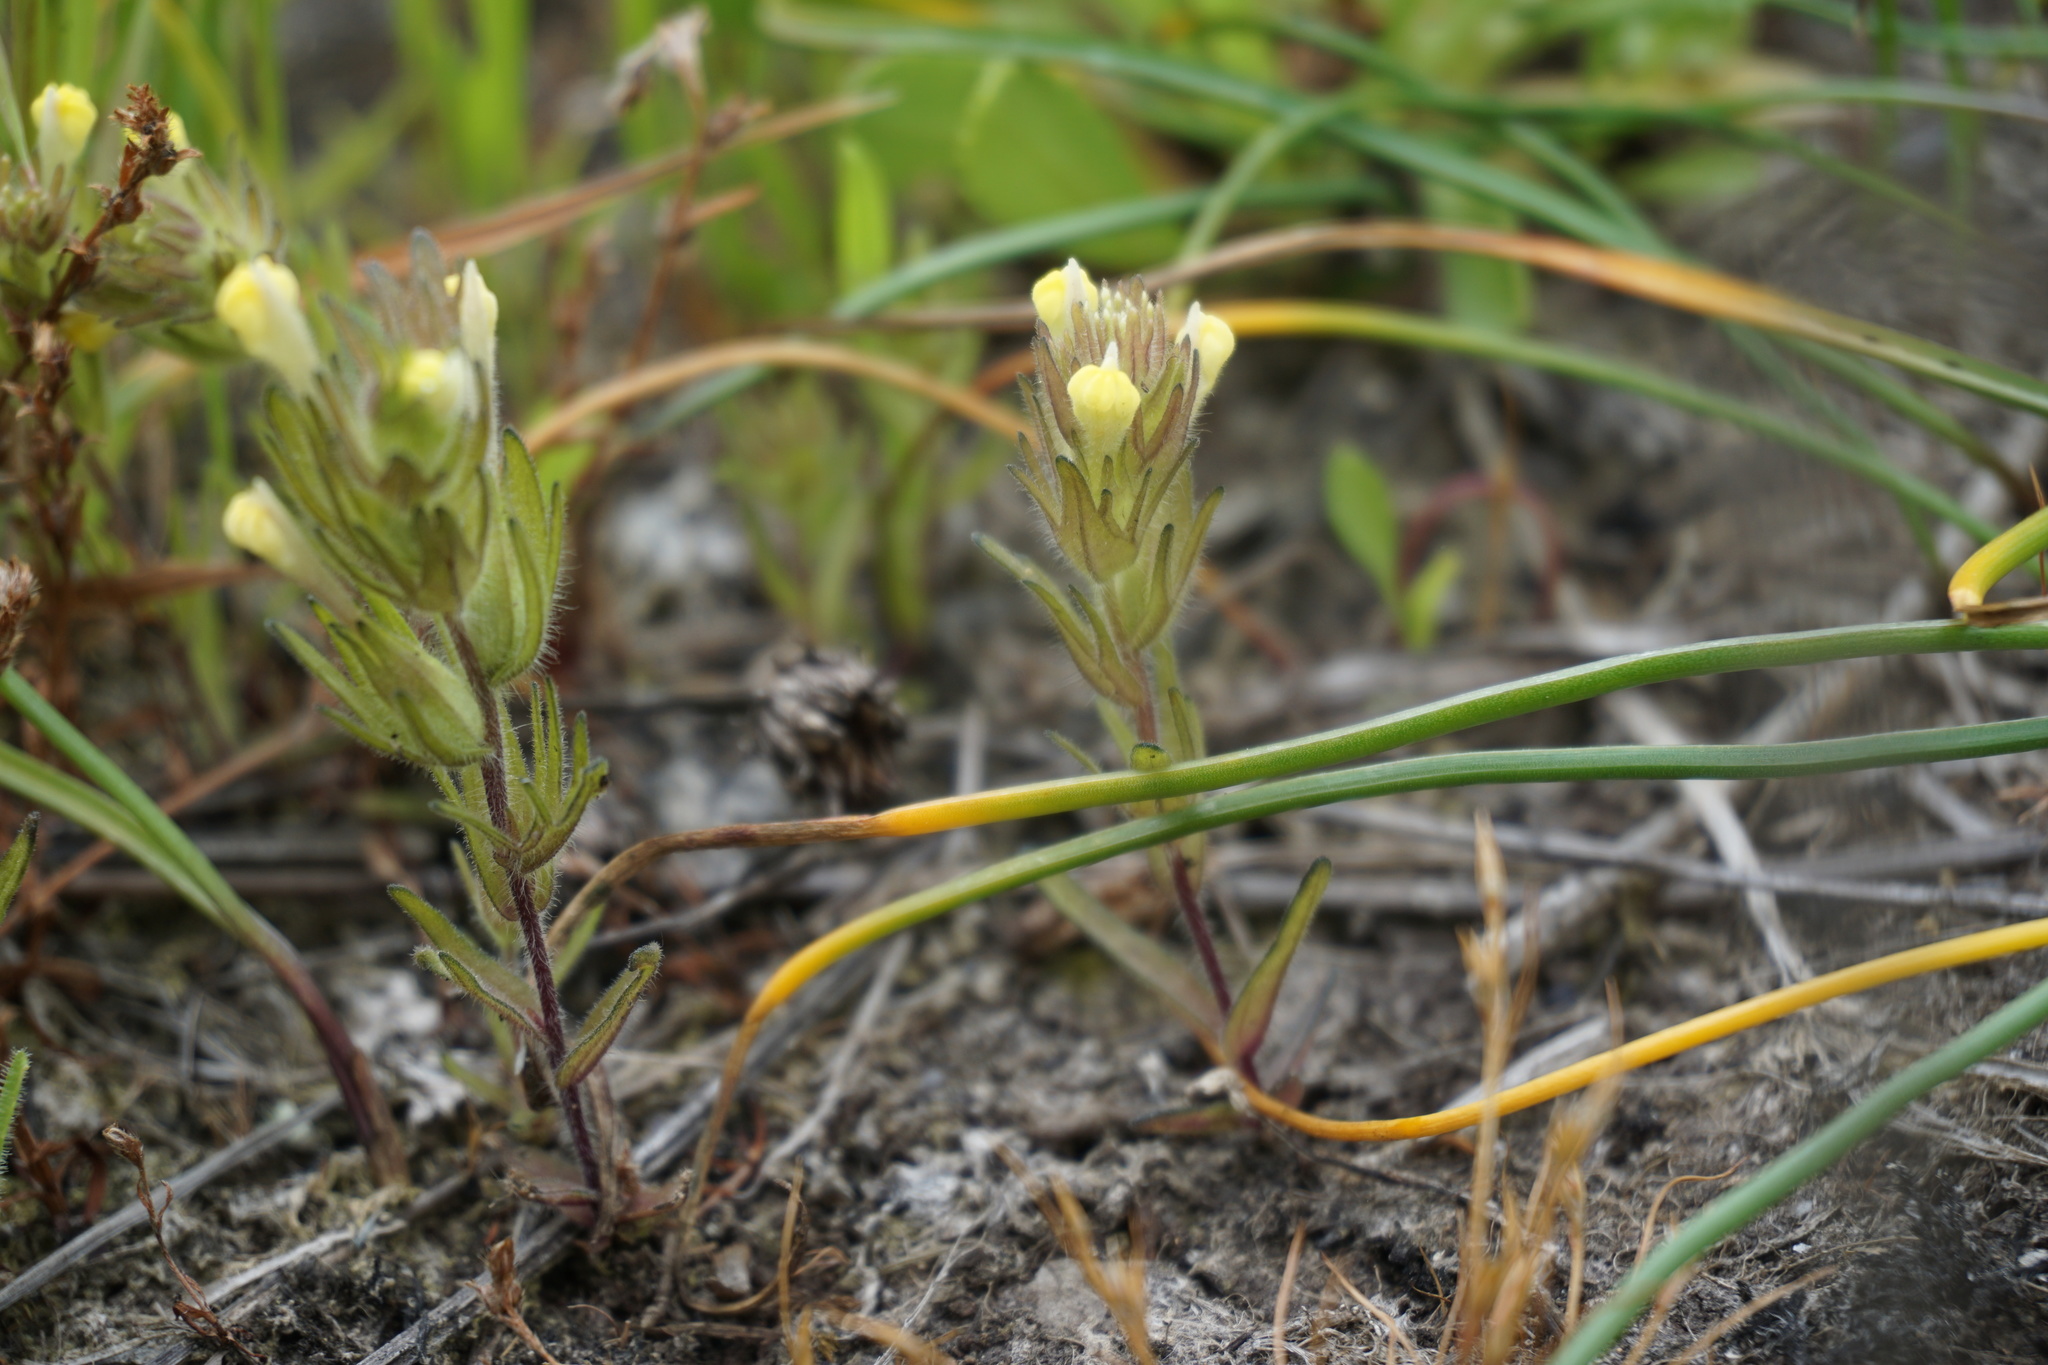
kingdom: Plantae
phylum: Tracheophyta
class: Magnoliopsida
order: Lamiales
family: Orobanchaceae
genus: Castilleja
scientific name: Castilleja victoriae
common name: Victoria paintbrush
